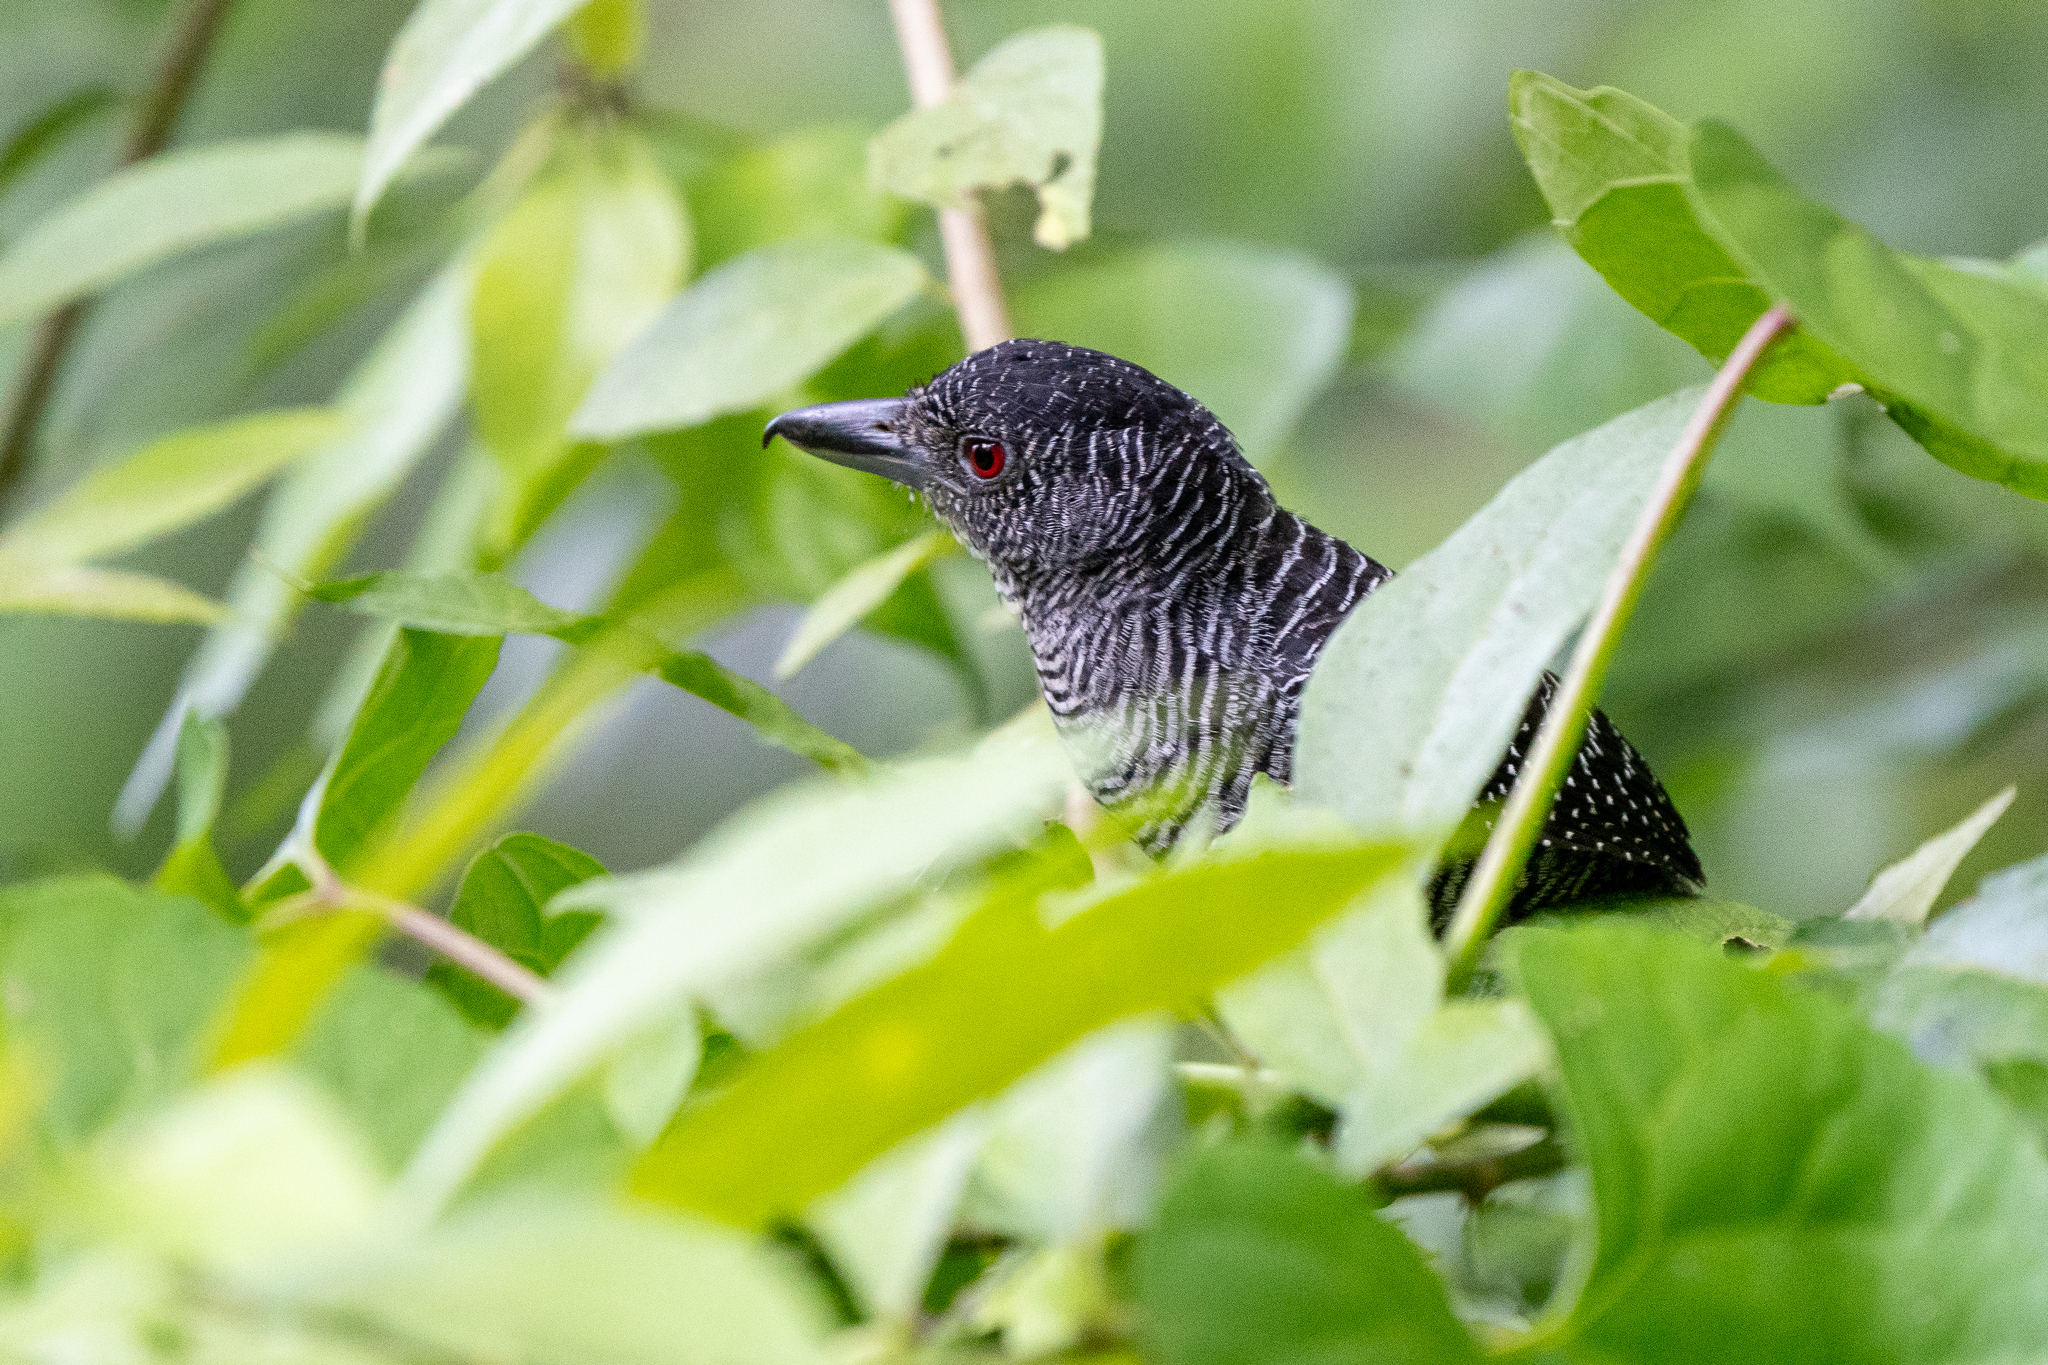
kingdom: Animalia
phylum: Chordata
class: Aves
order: Passeriformes
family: Thamnophilidae
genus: Cymbilaimus
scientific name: Cymbilaimus lineatus
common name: Fasciated antshrike
